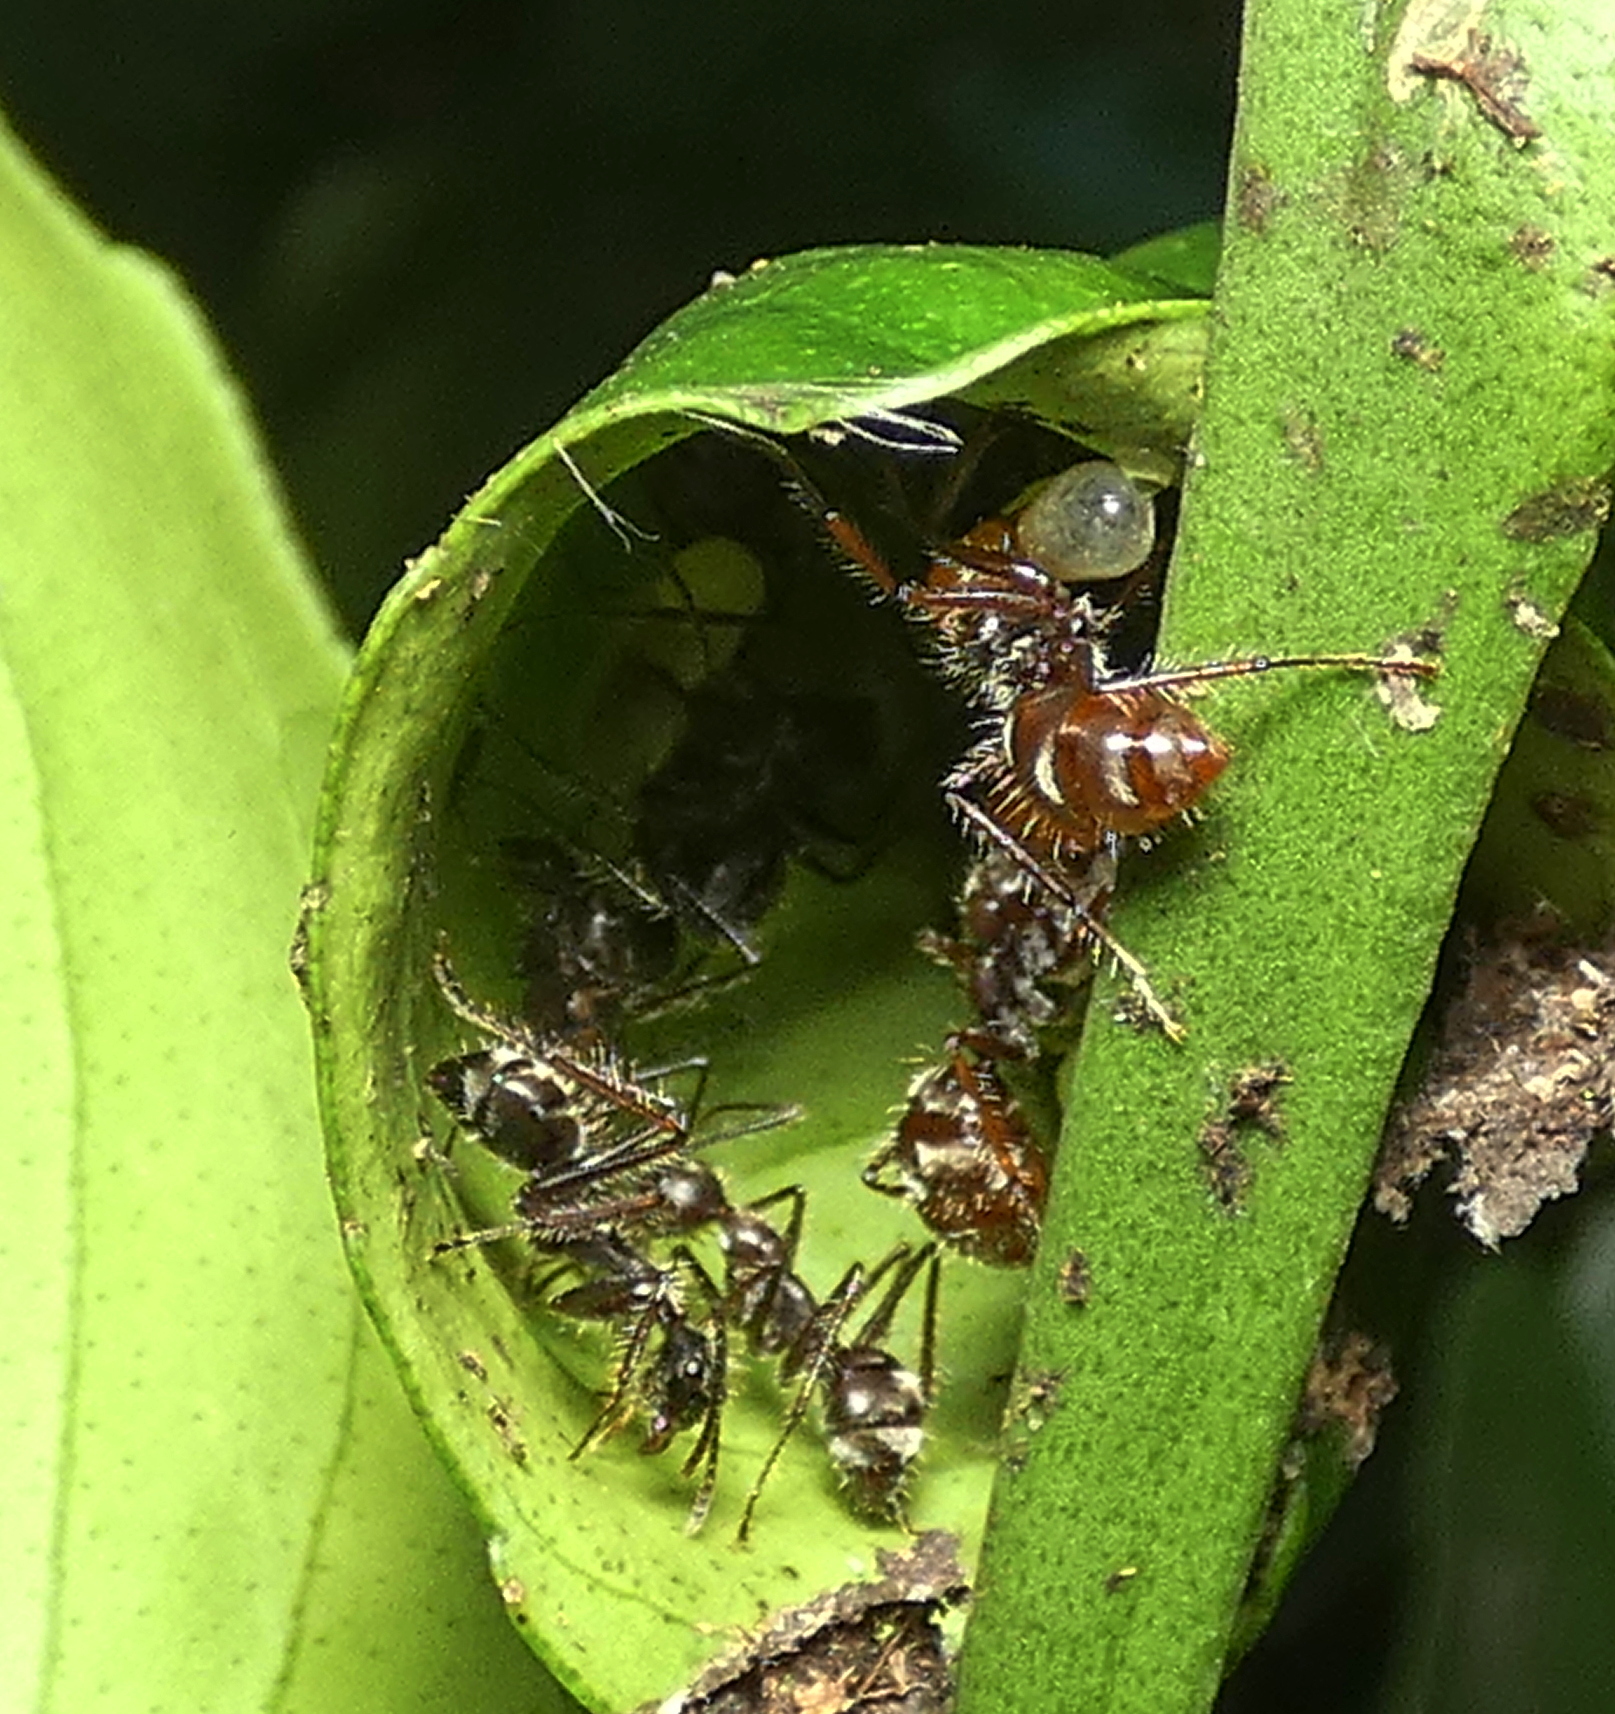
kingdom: Animalia
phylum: Arthropoda
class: Insecta
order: Hymenoptera
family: Formicidae
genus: Camponotus
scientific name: Camponotus urichi
